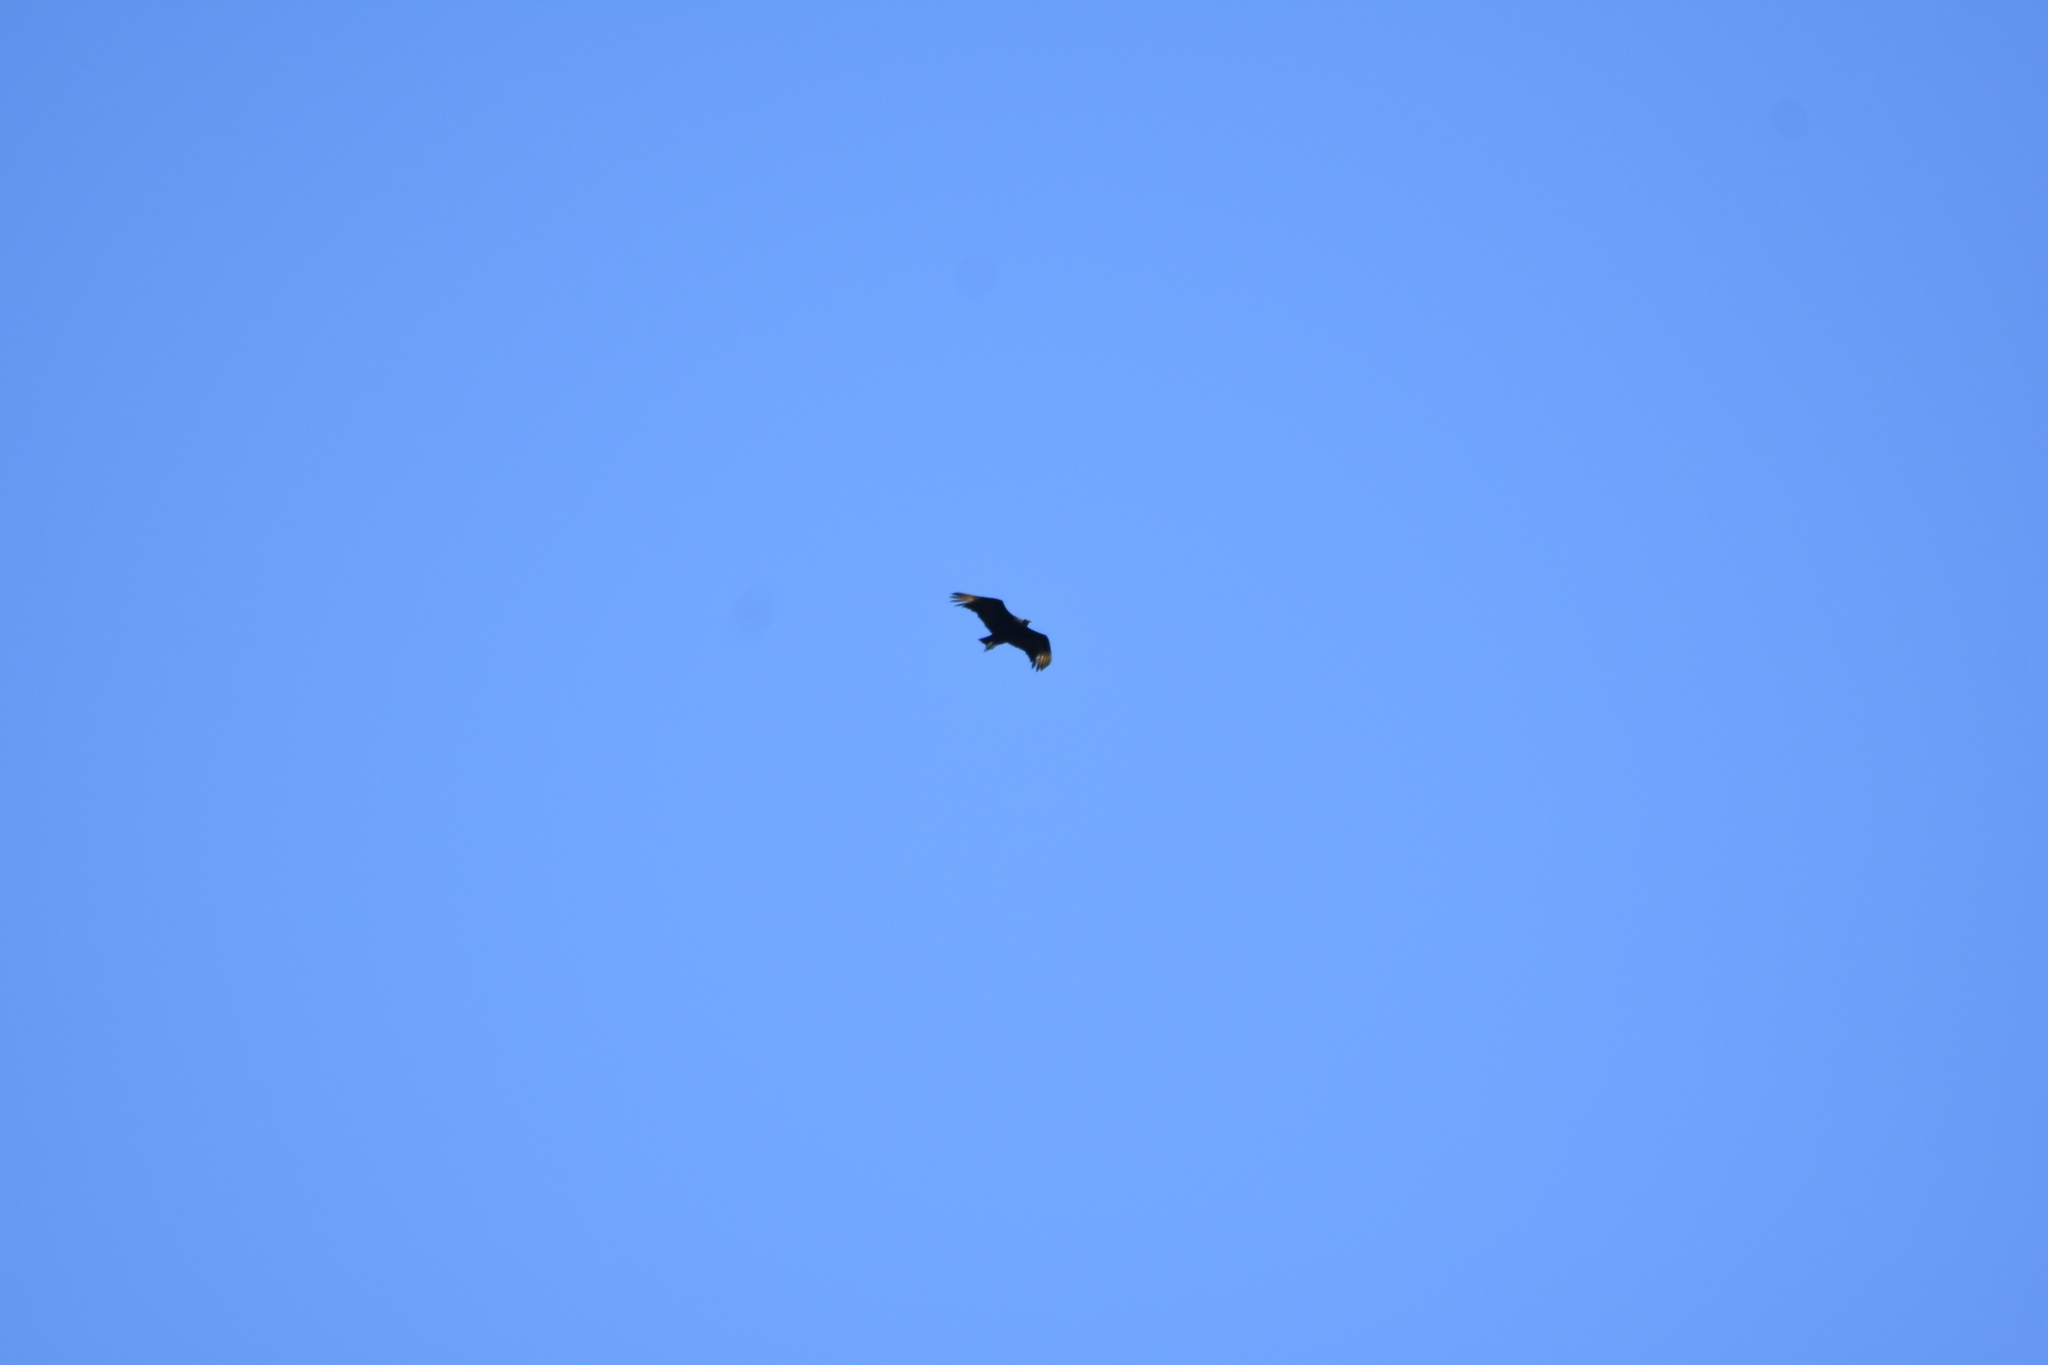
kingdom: Animalia
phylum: Chordata
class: Aves
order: Accipitriformes
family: Cathartidae
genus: Coragyps
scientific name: Coragyps atratus
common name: Black vulture
